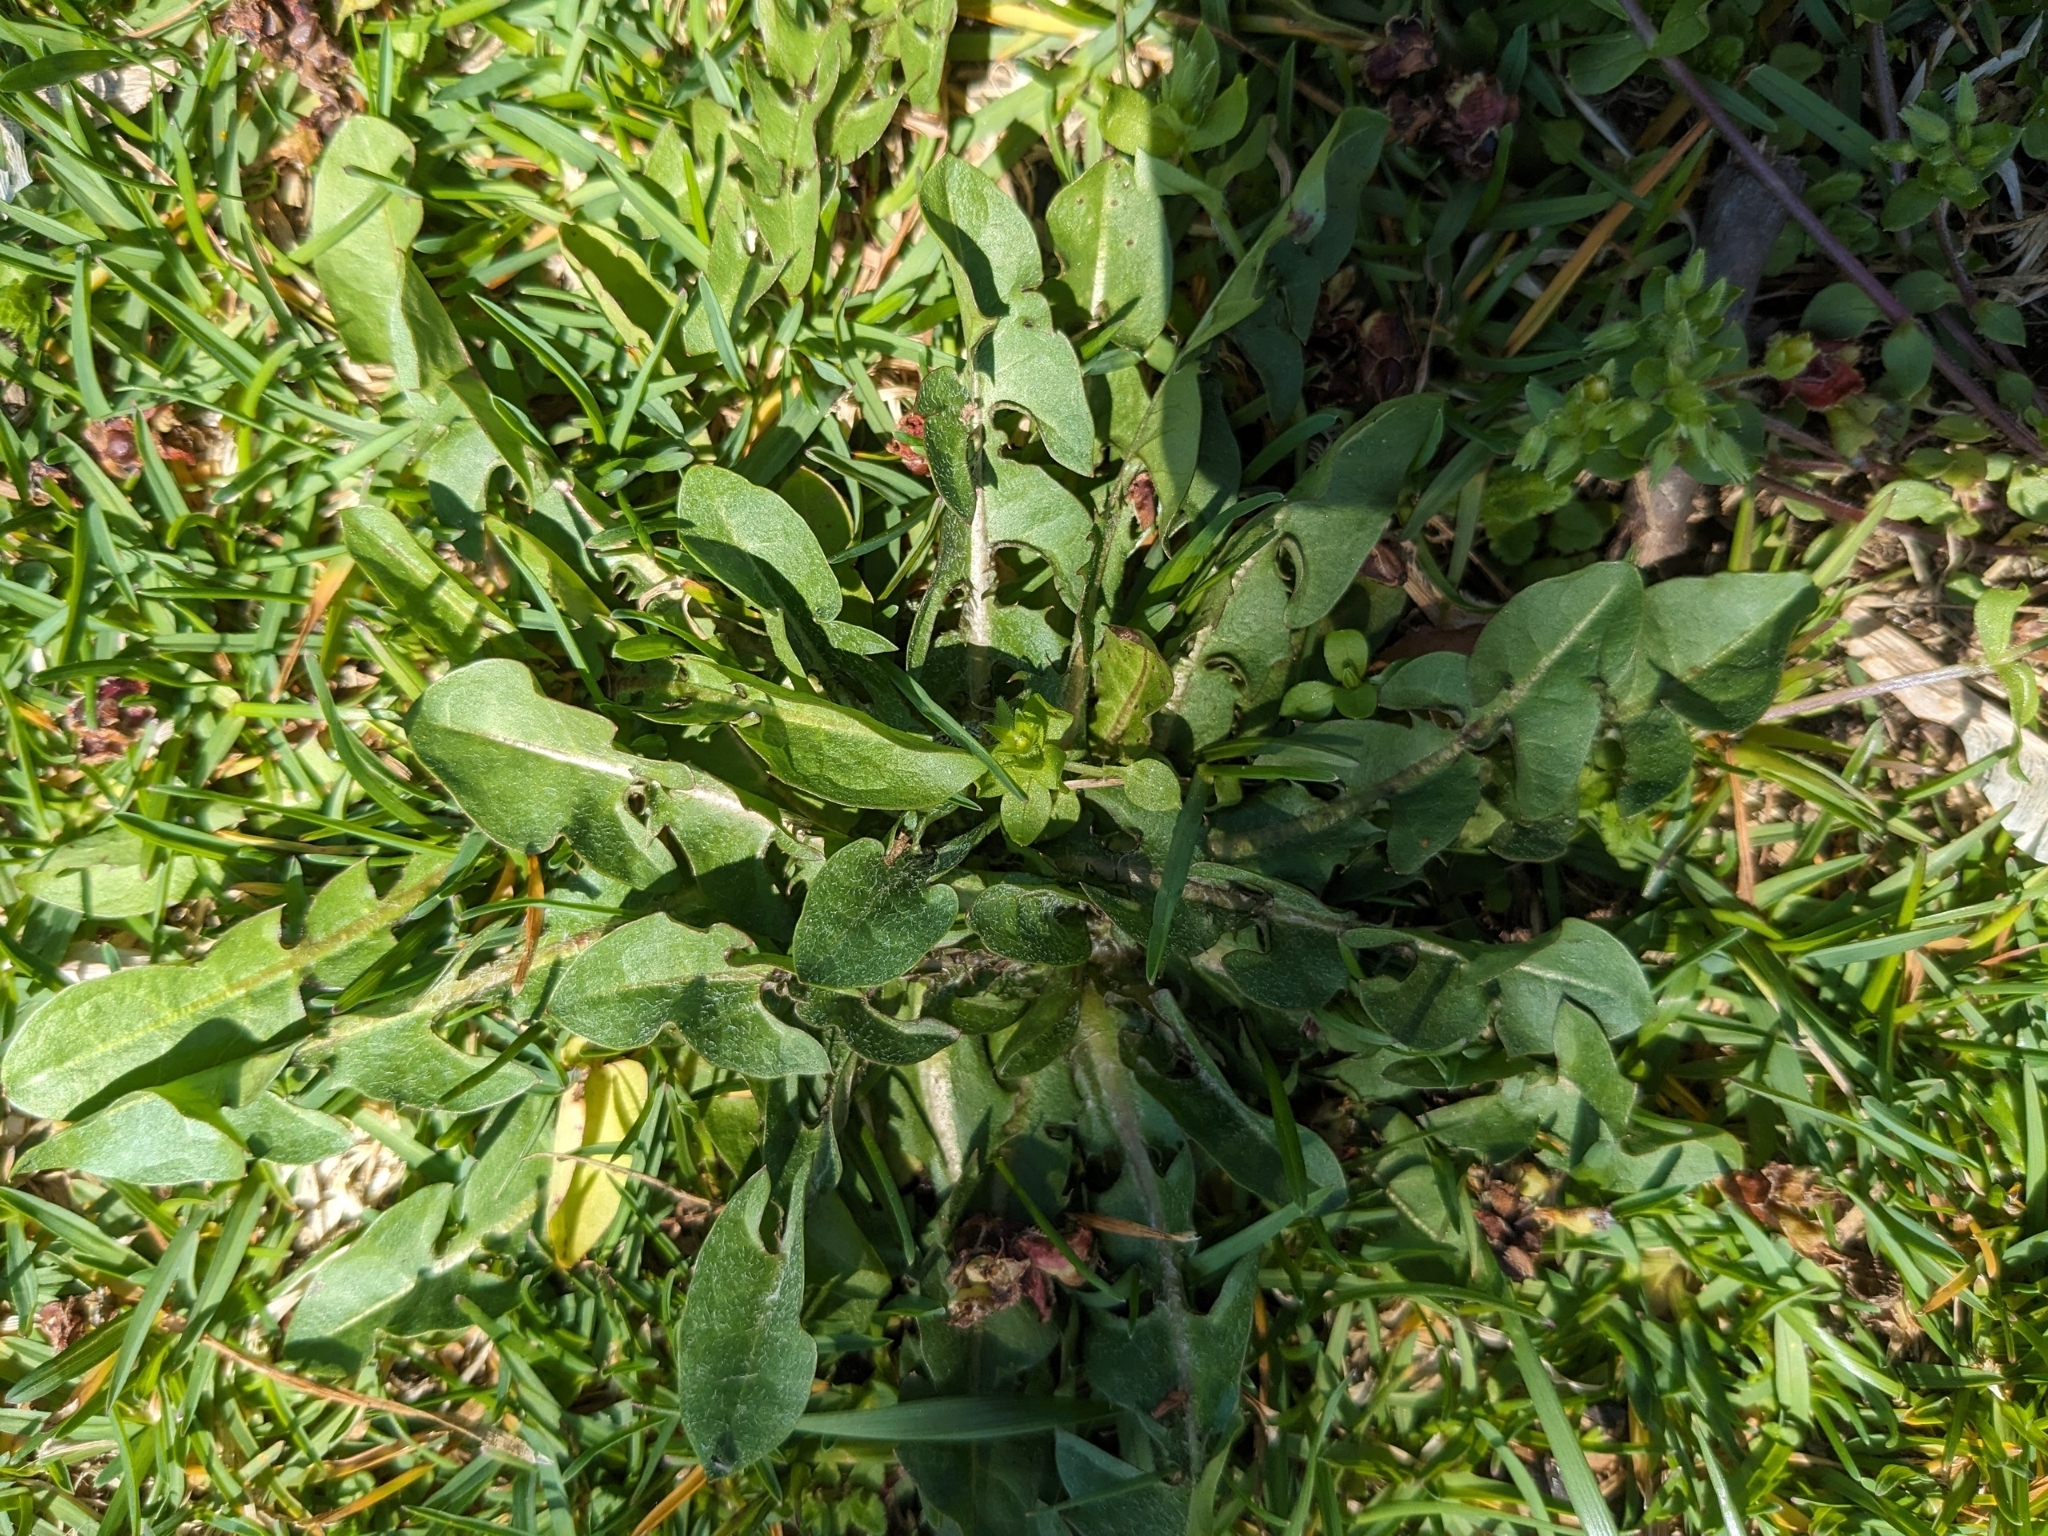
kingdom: Plantae
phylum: Tracheophyta
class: Magnoliopsida
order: Asterales
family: Asteraceae
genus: Taraxacum
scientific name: Taraxacum officinale
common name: Common dandelion
